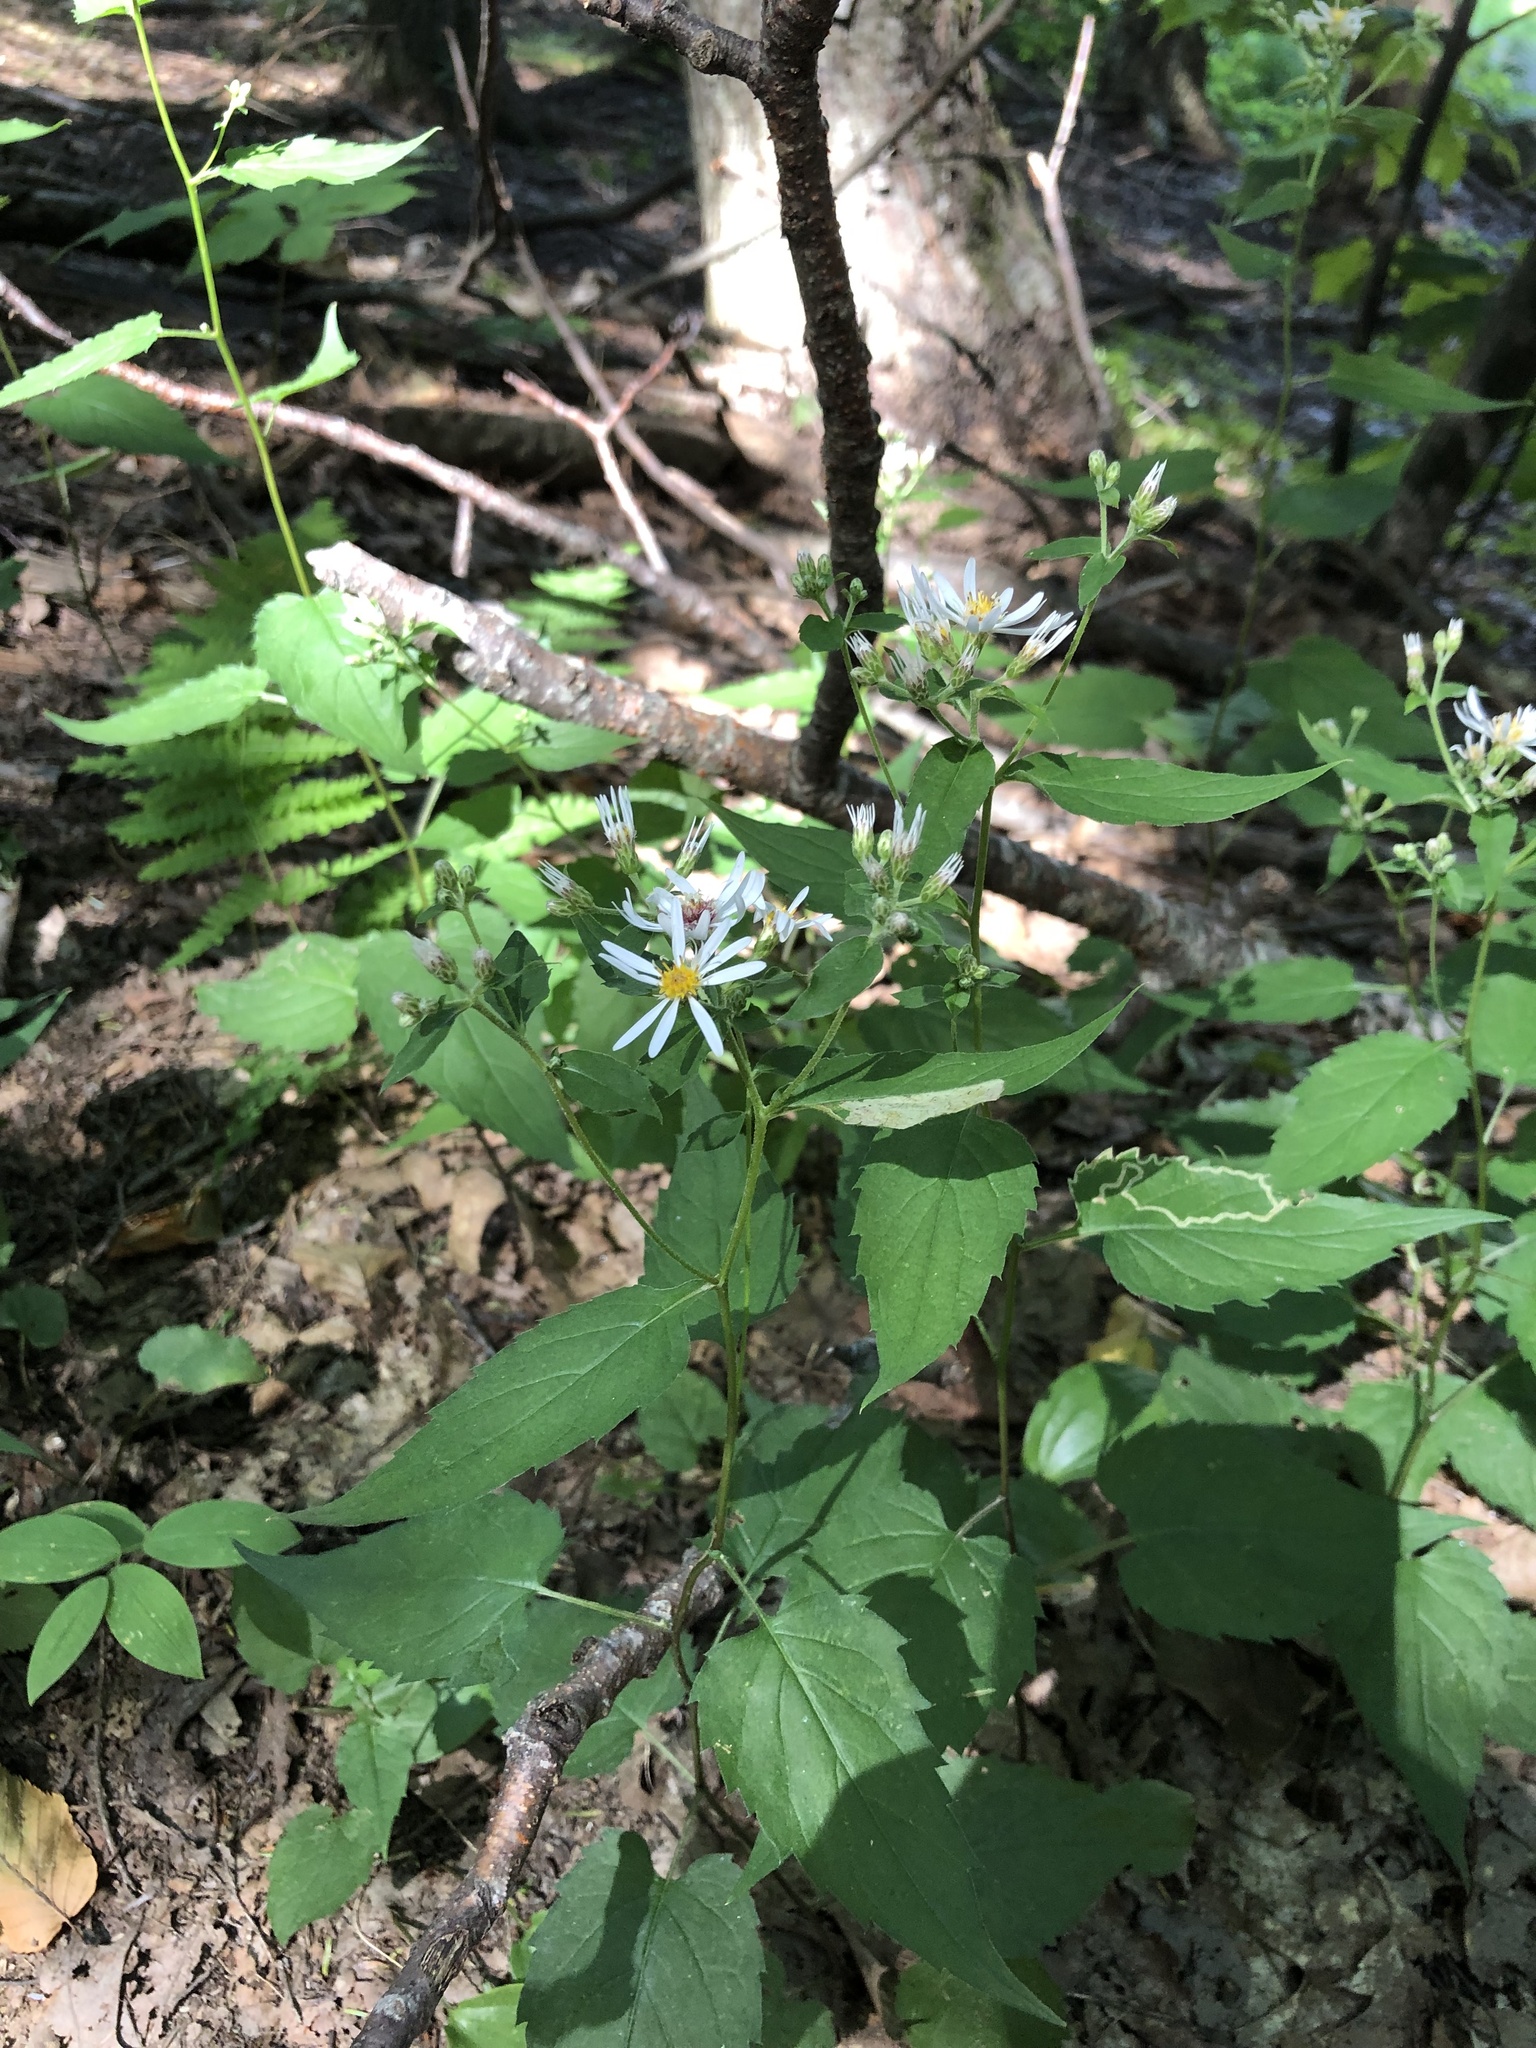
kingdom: Plantae
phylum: Tracheophyta
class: Magnoliopsida
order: Asterales
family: Asteraceae
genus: Eurybia
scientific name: Eurybia divaricata
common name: White wood aster
